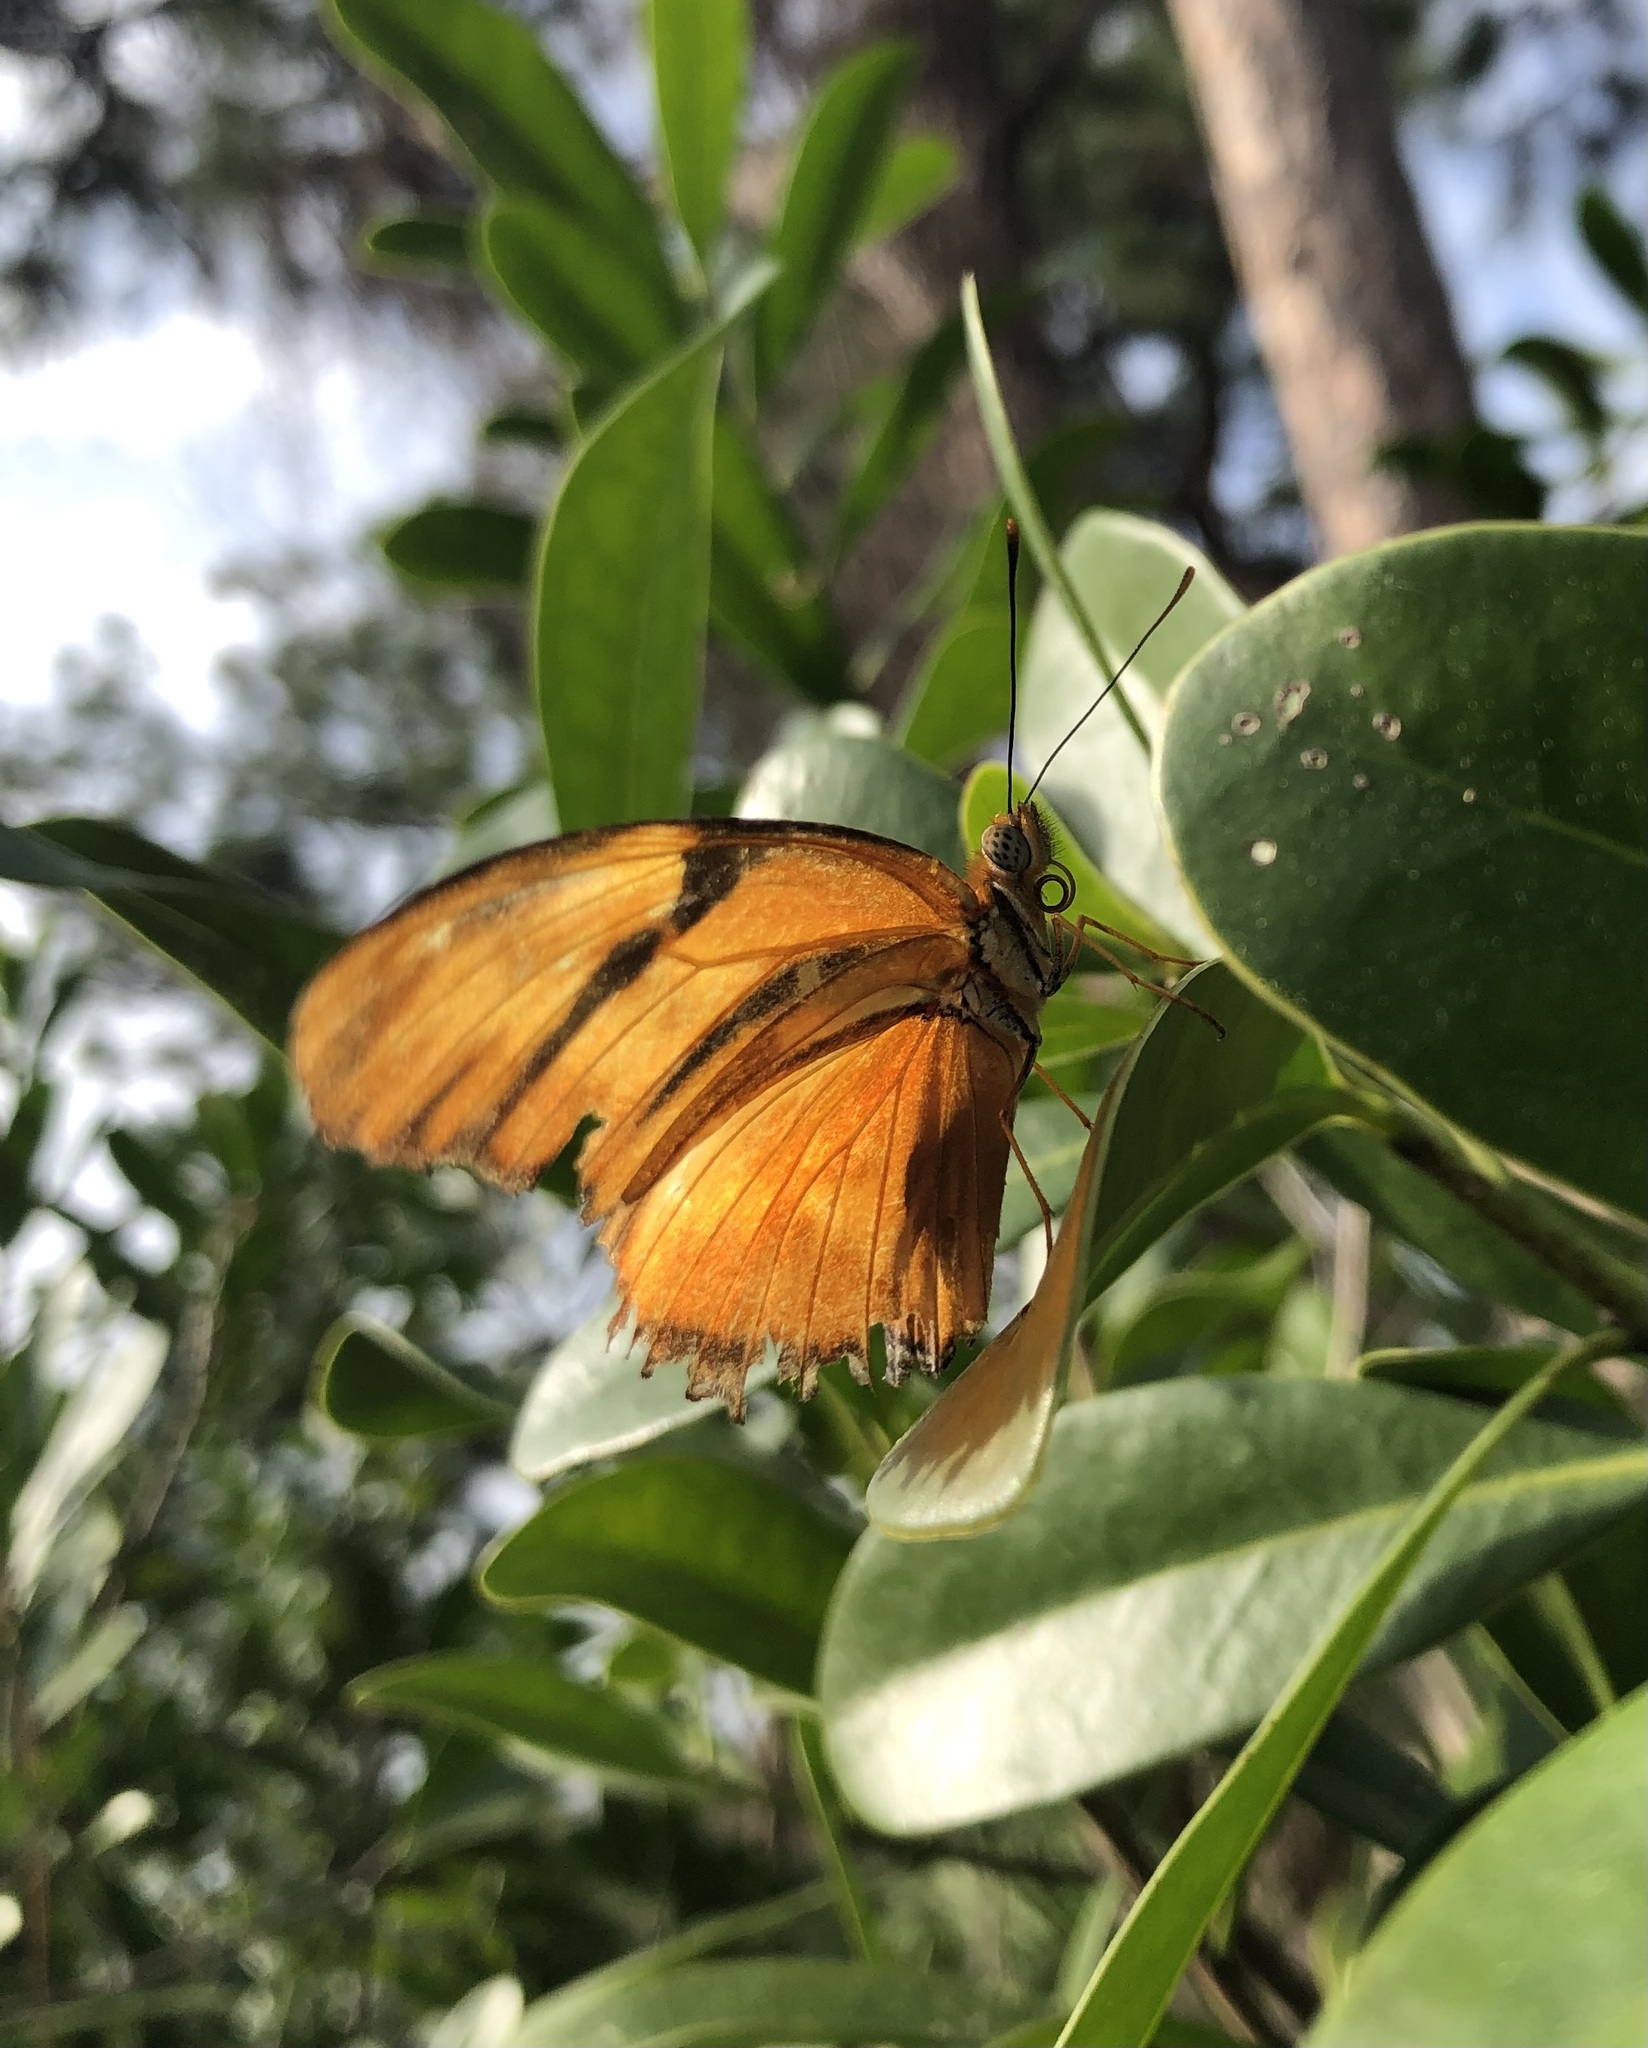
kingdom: Animalia
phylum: Arthropoda
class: Insecta
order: Lepidoptera
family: Nymphalidae
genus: Dryas
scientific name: Dryas iulia
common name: Flambeau
